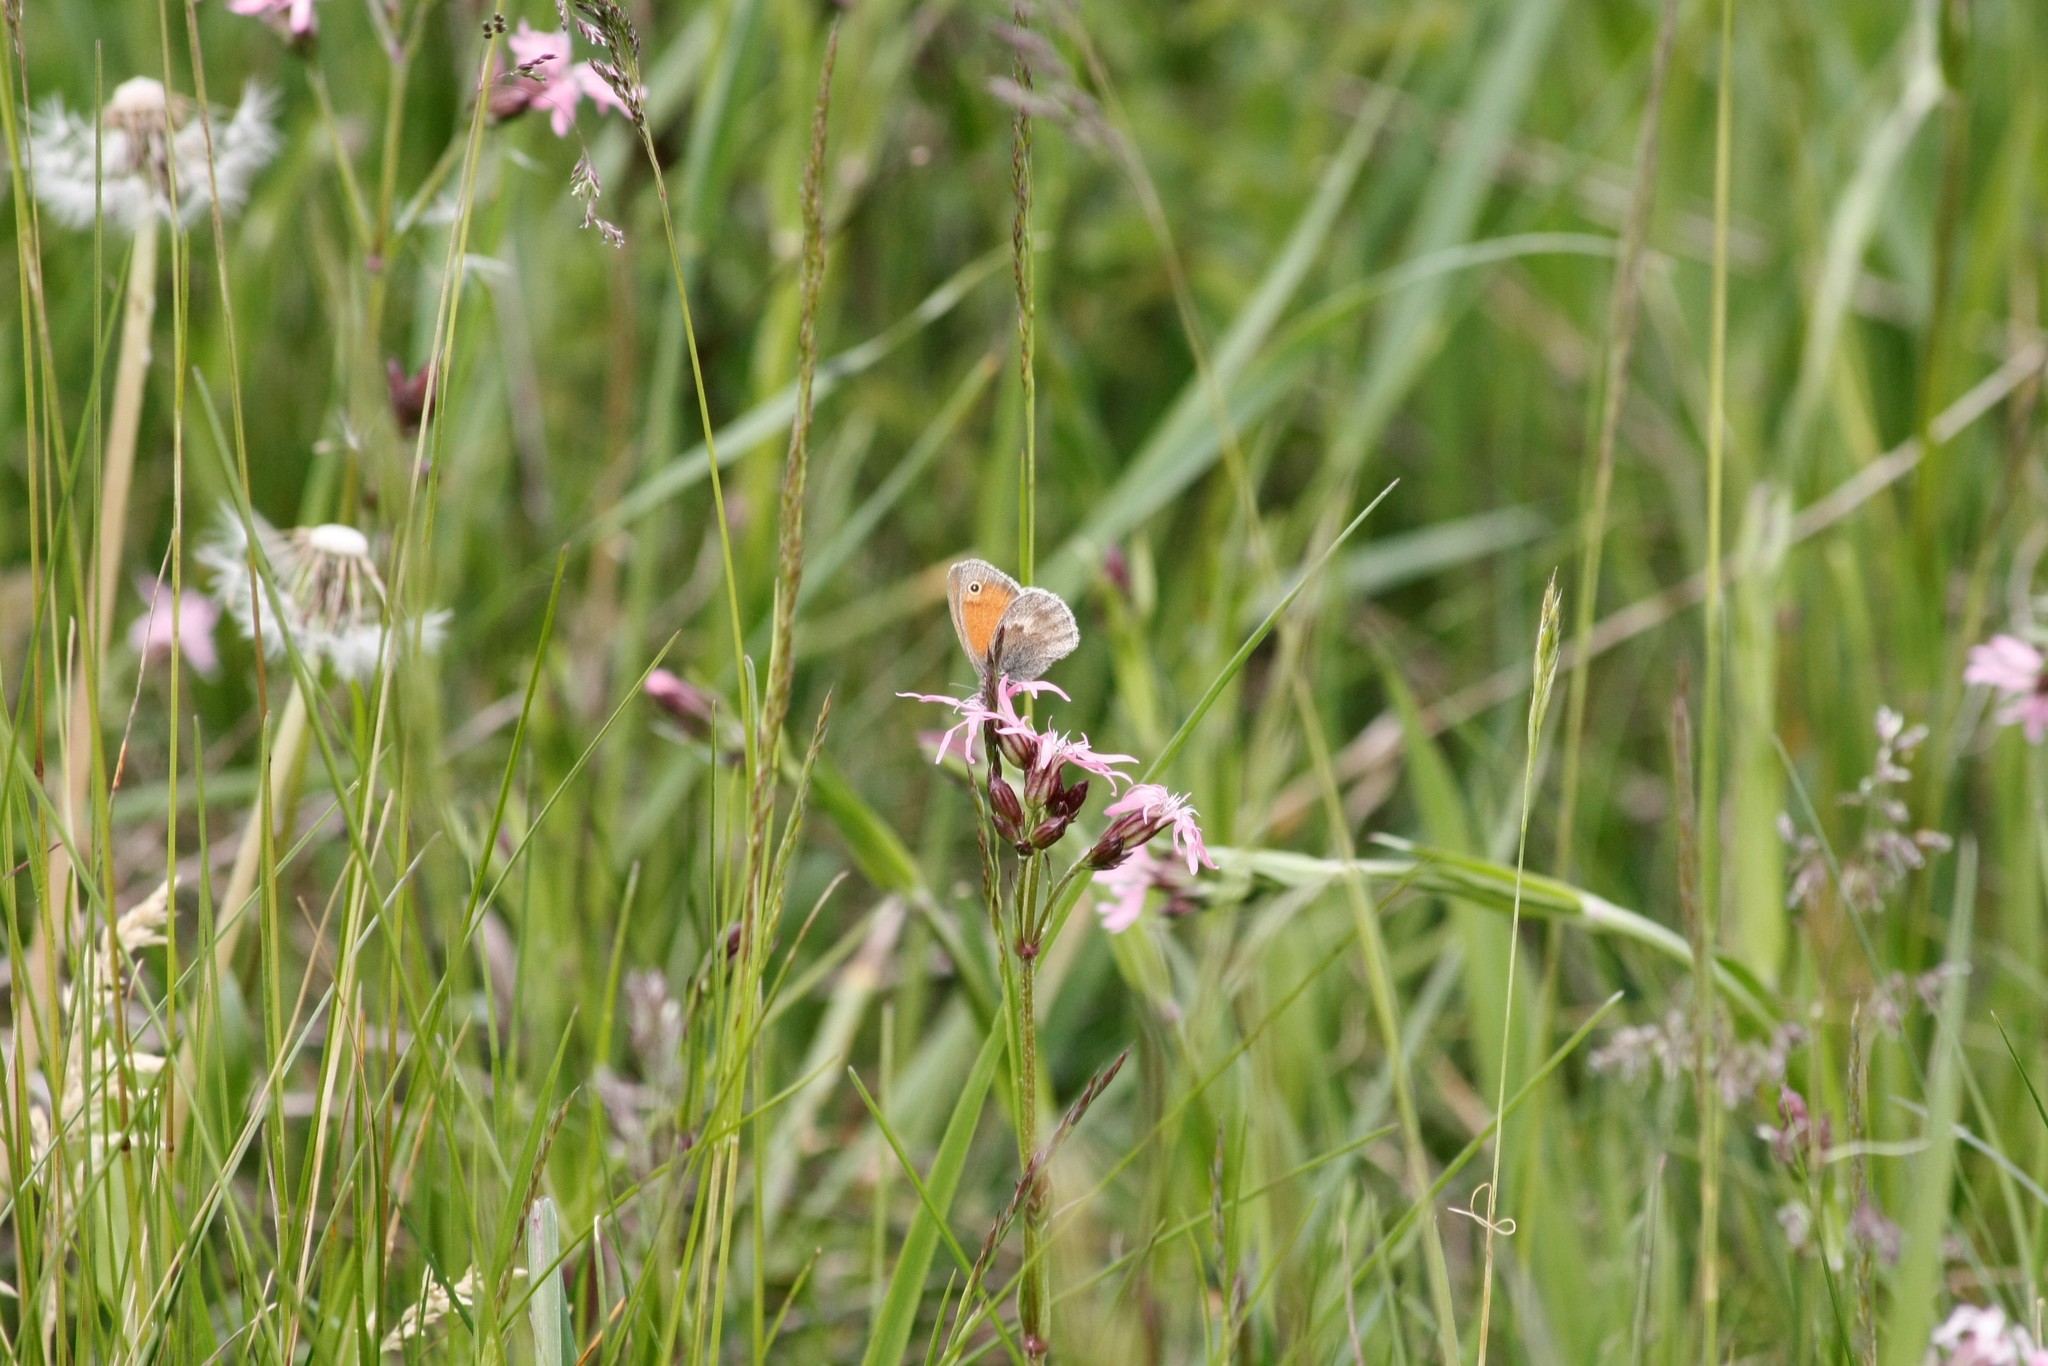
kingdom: Animalia
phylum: Arthropoda
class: Insecta
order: Lepidoptera
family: Nymphalidae
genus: Coenonympha
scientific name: Coenonympha pamphilus
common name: Small heath
